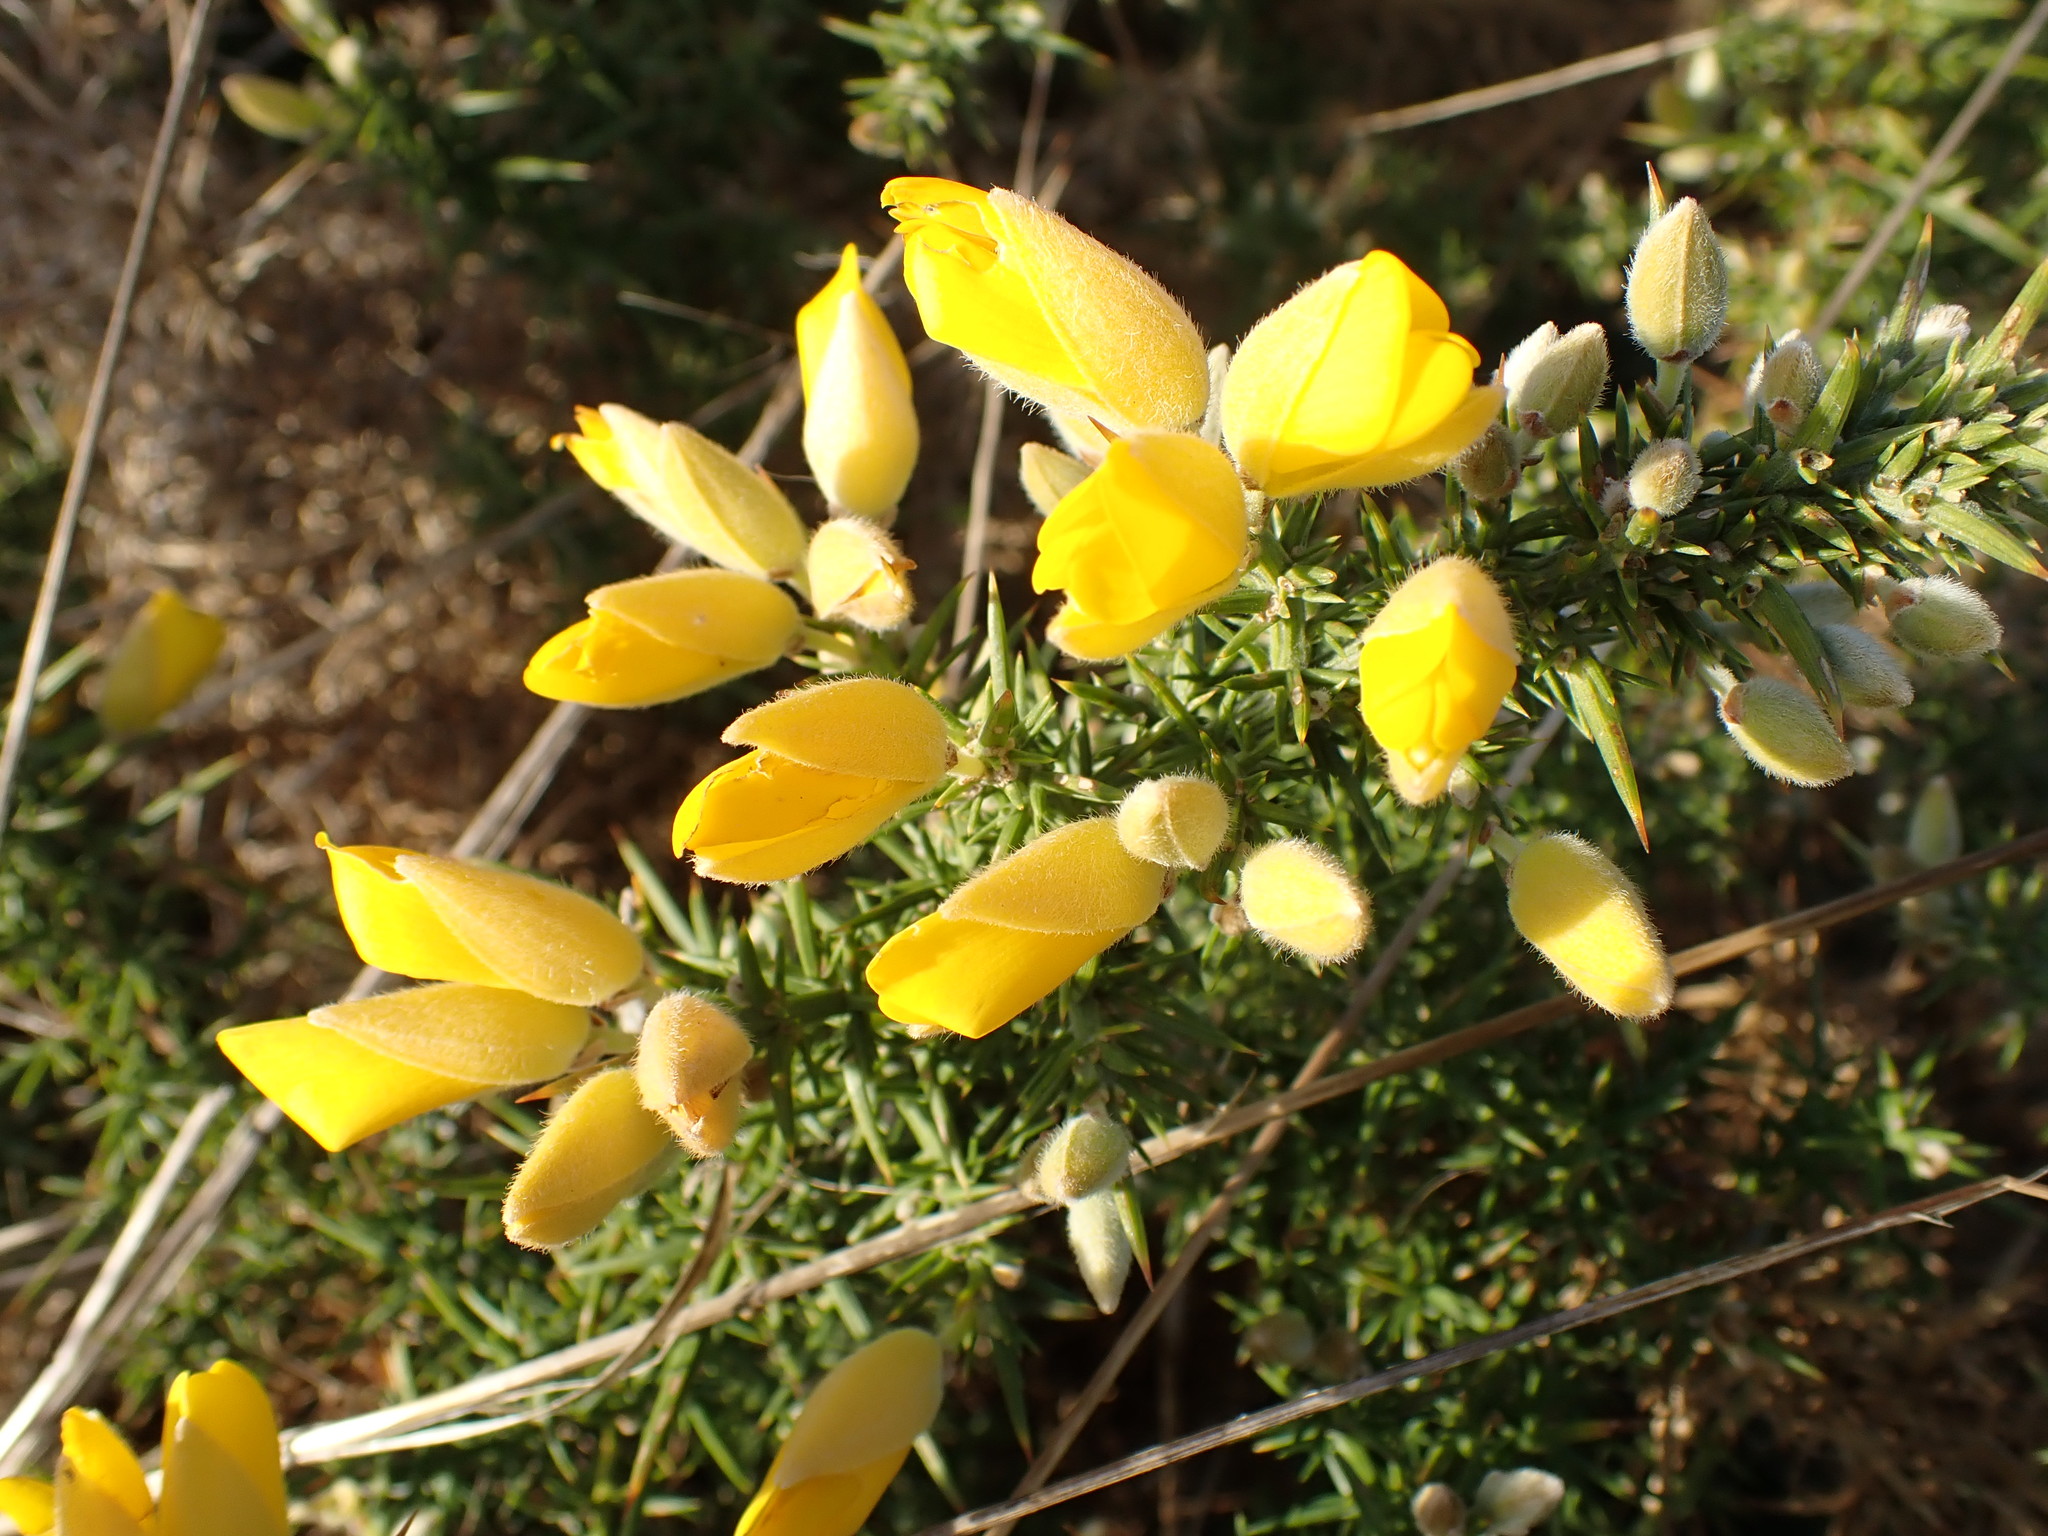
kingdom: Plantae
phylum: Tracheophyta
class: Magnoliopsida
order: Fabales
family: Fabaceae
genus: Ulex
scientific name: Ulex europaeus
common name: Common gorse
